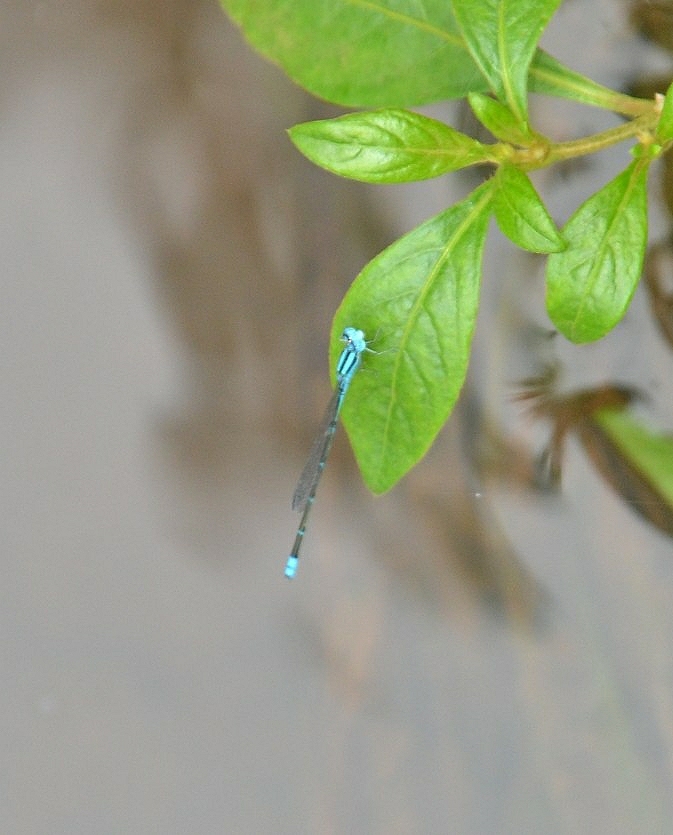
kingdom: Animalia
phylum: Arthropoda
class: Insecta
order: Odonata
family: Coenagrionidae
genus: Pseudagrion
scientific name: Pseudagrion microcephalum
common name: Blue riverdamsel
